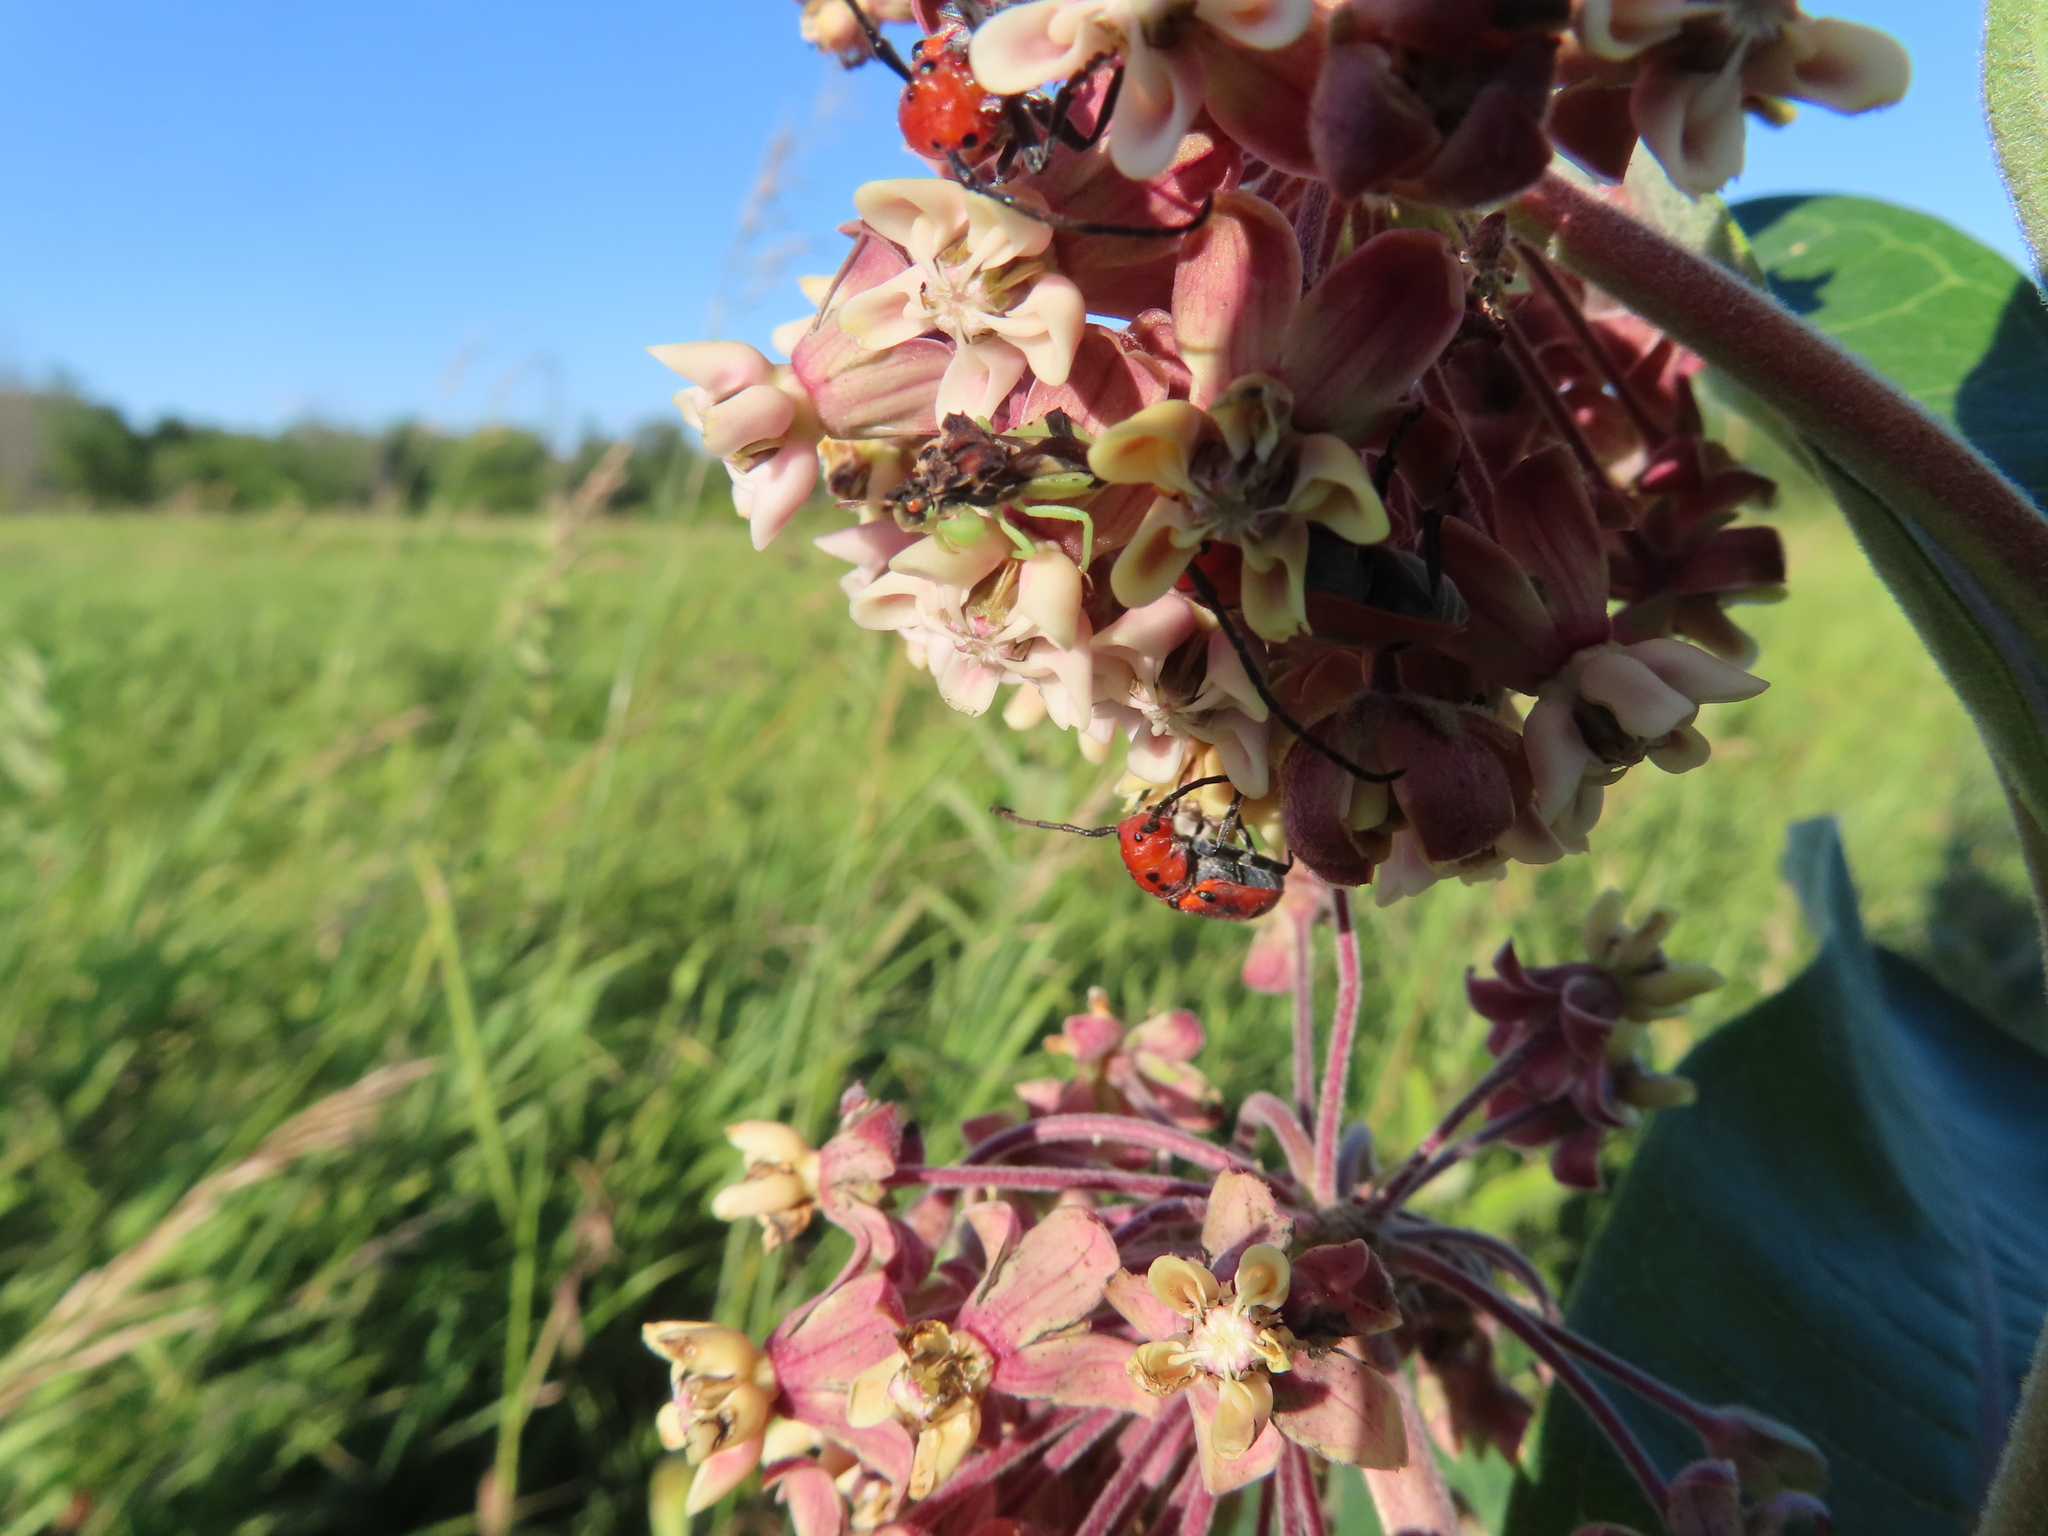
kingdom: Animalia
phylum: Arthropoda
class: Insecta
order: Coleoptera
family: Cerambycidae
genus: Tetraopes
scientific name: Tetraopes tetrophthalmus
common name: Red milkweed beetle
